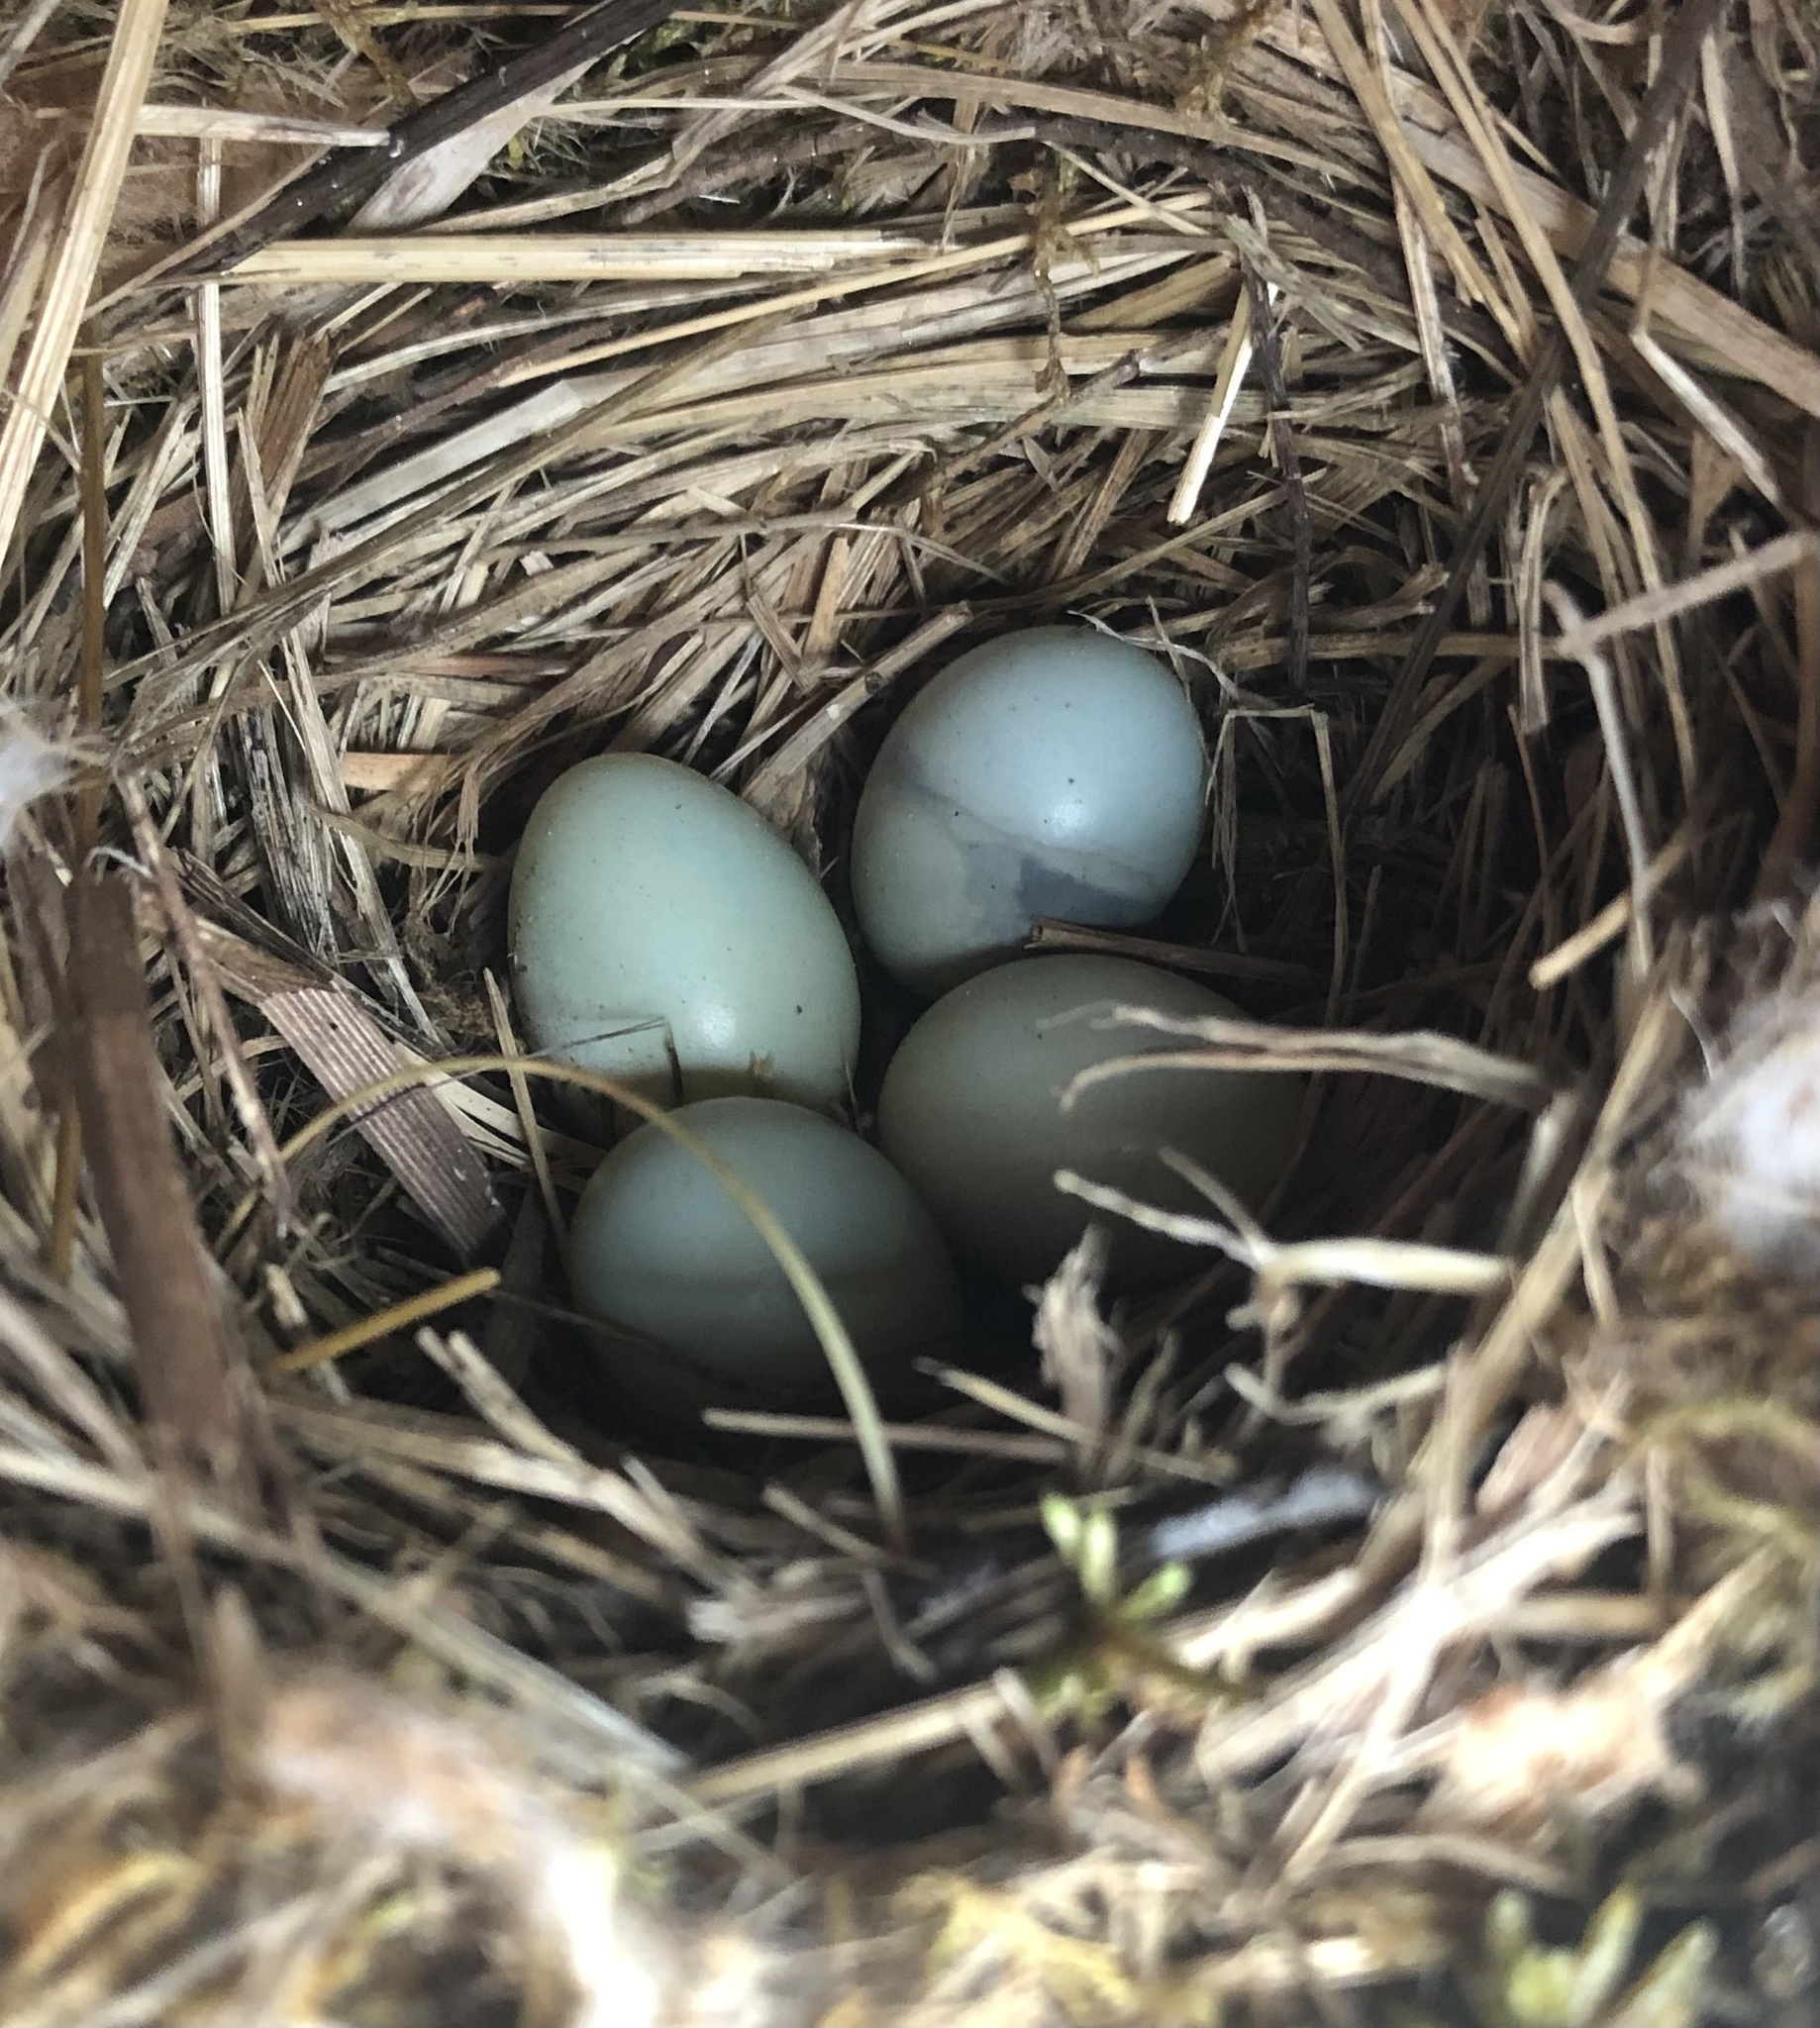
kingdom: Animalia
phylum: Chordata
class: Aves
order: Passeriformes
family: Turdidae
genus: Sialia
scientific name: Sialia sialis
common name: Eastern bluebird
